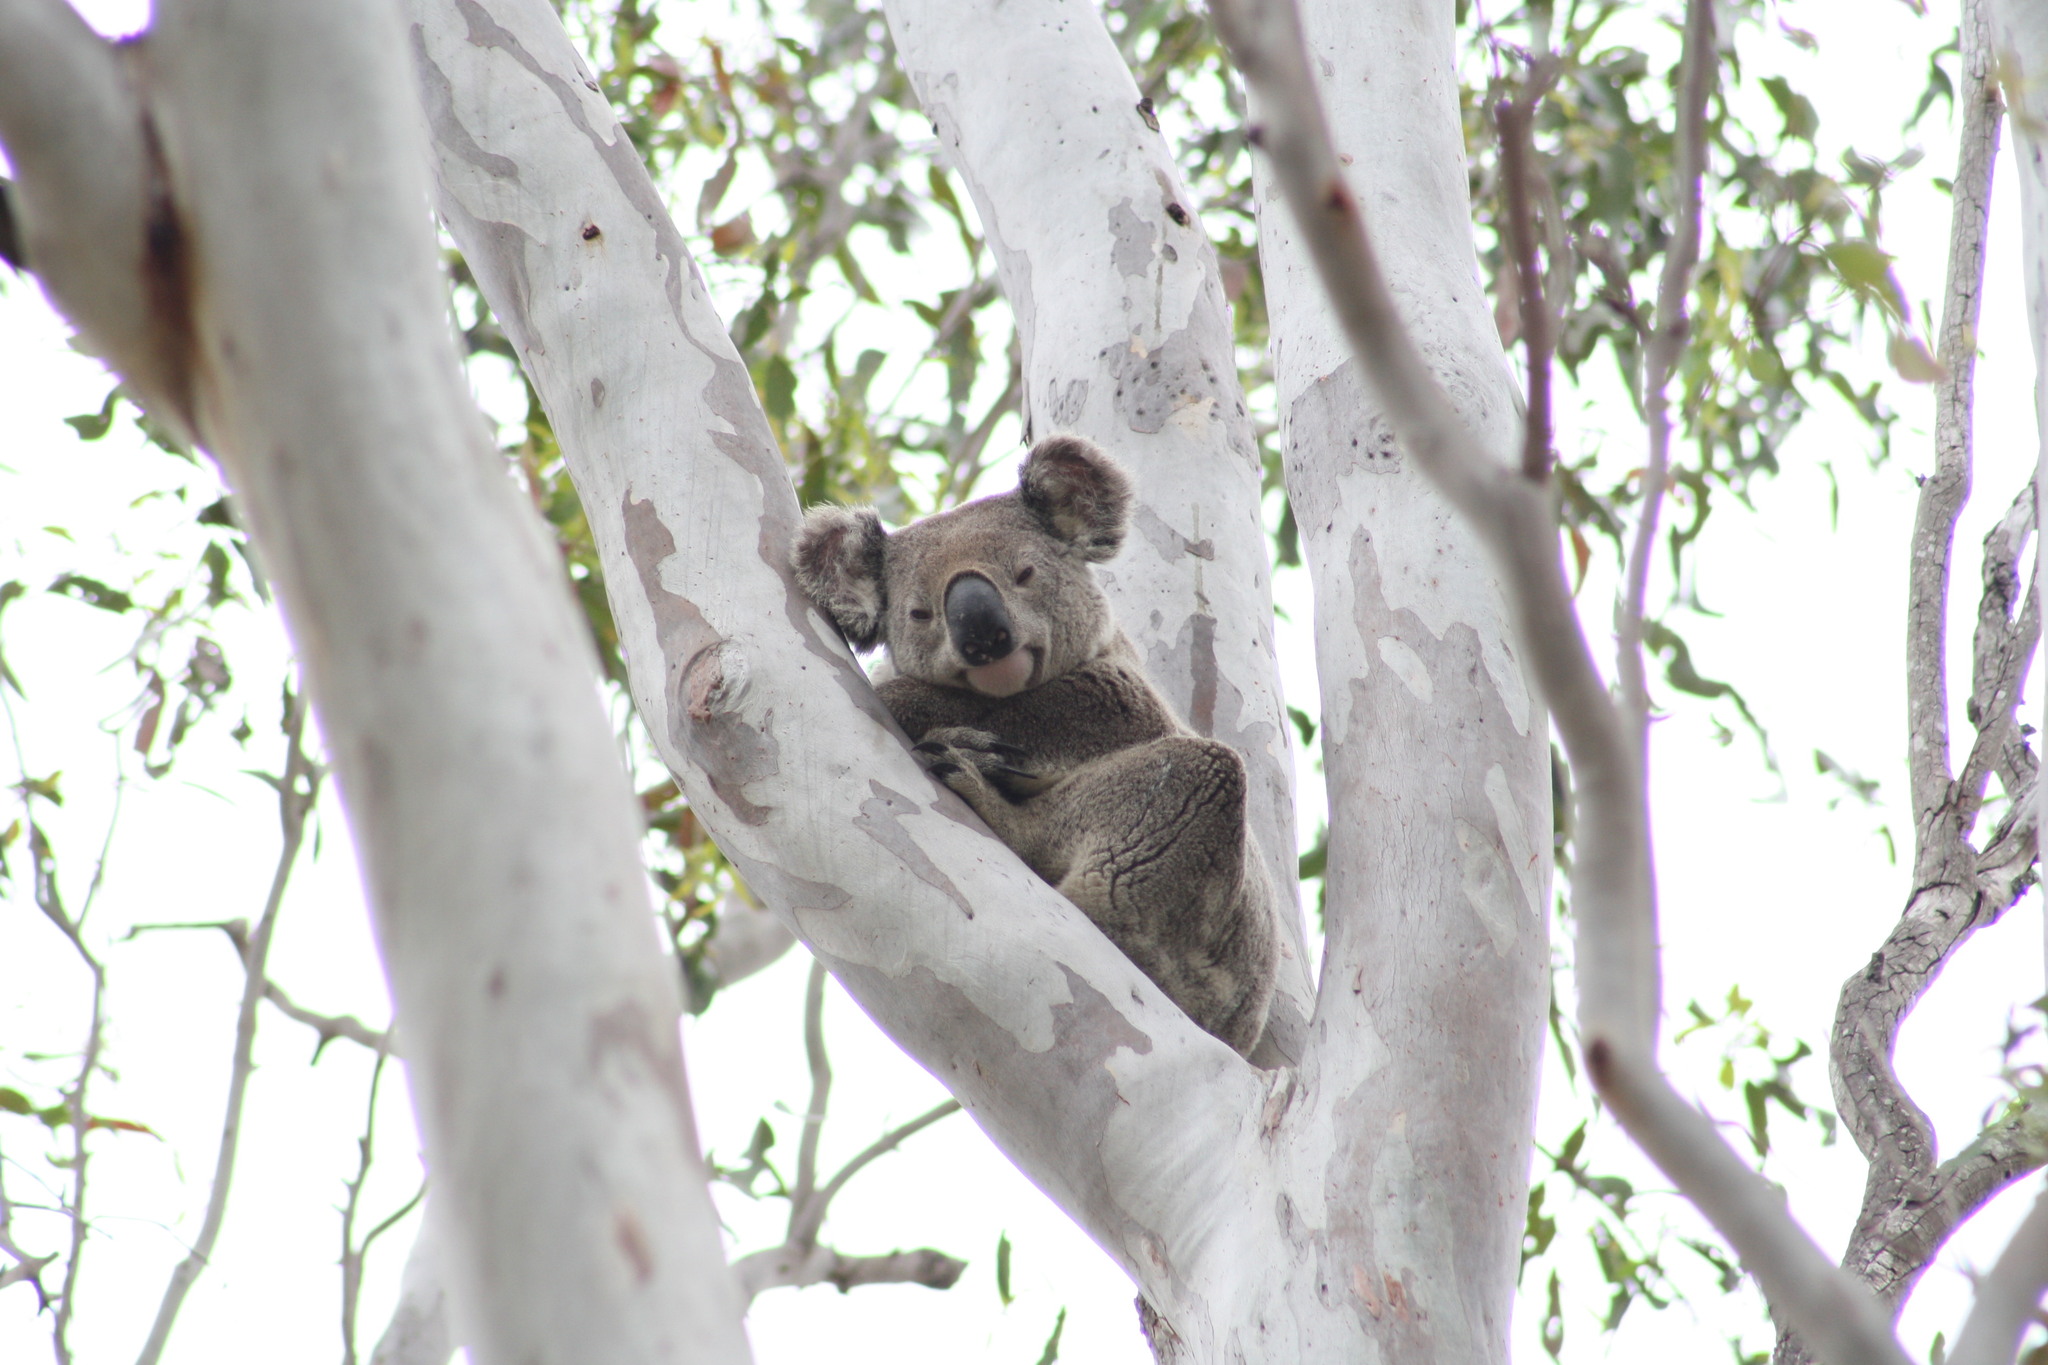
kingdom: Animalia
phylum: Chordata
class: Mammalia
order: Diprotodontia
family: Phascolarctidae
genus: Phascolarctos
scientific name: Phascolarctos cinereus
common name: Koala
